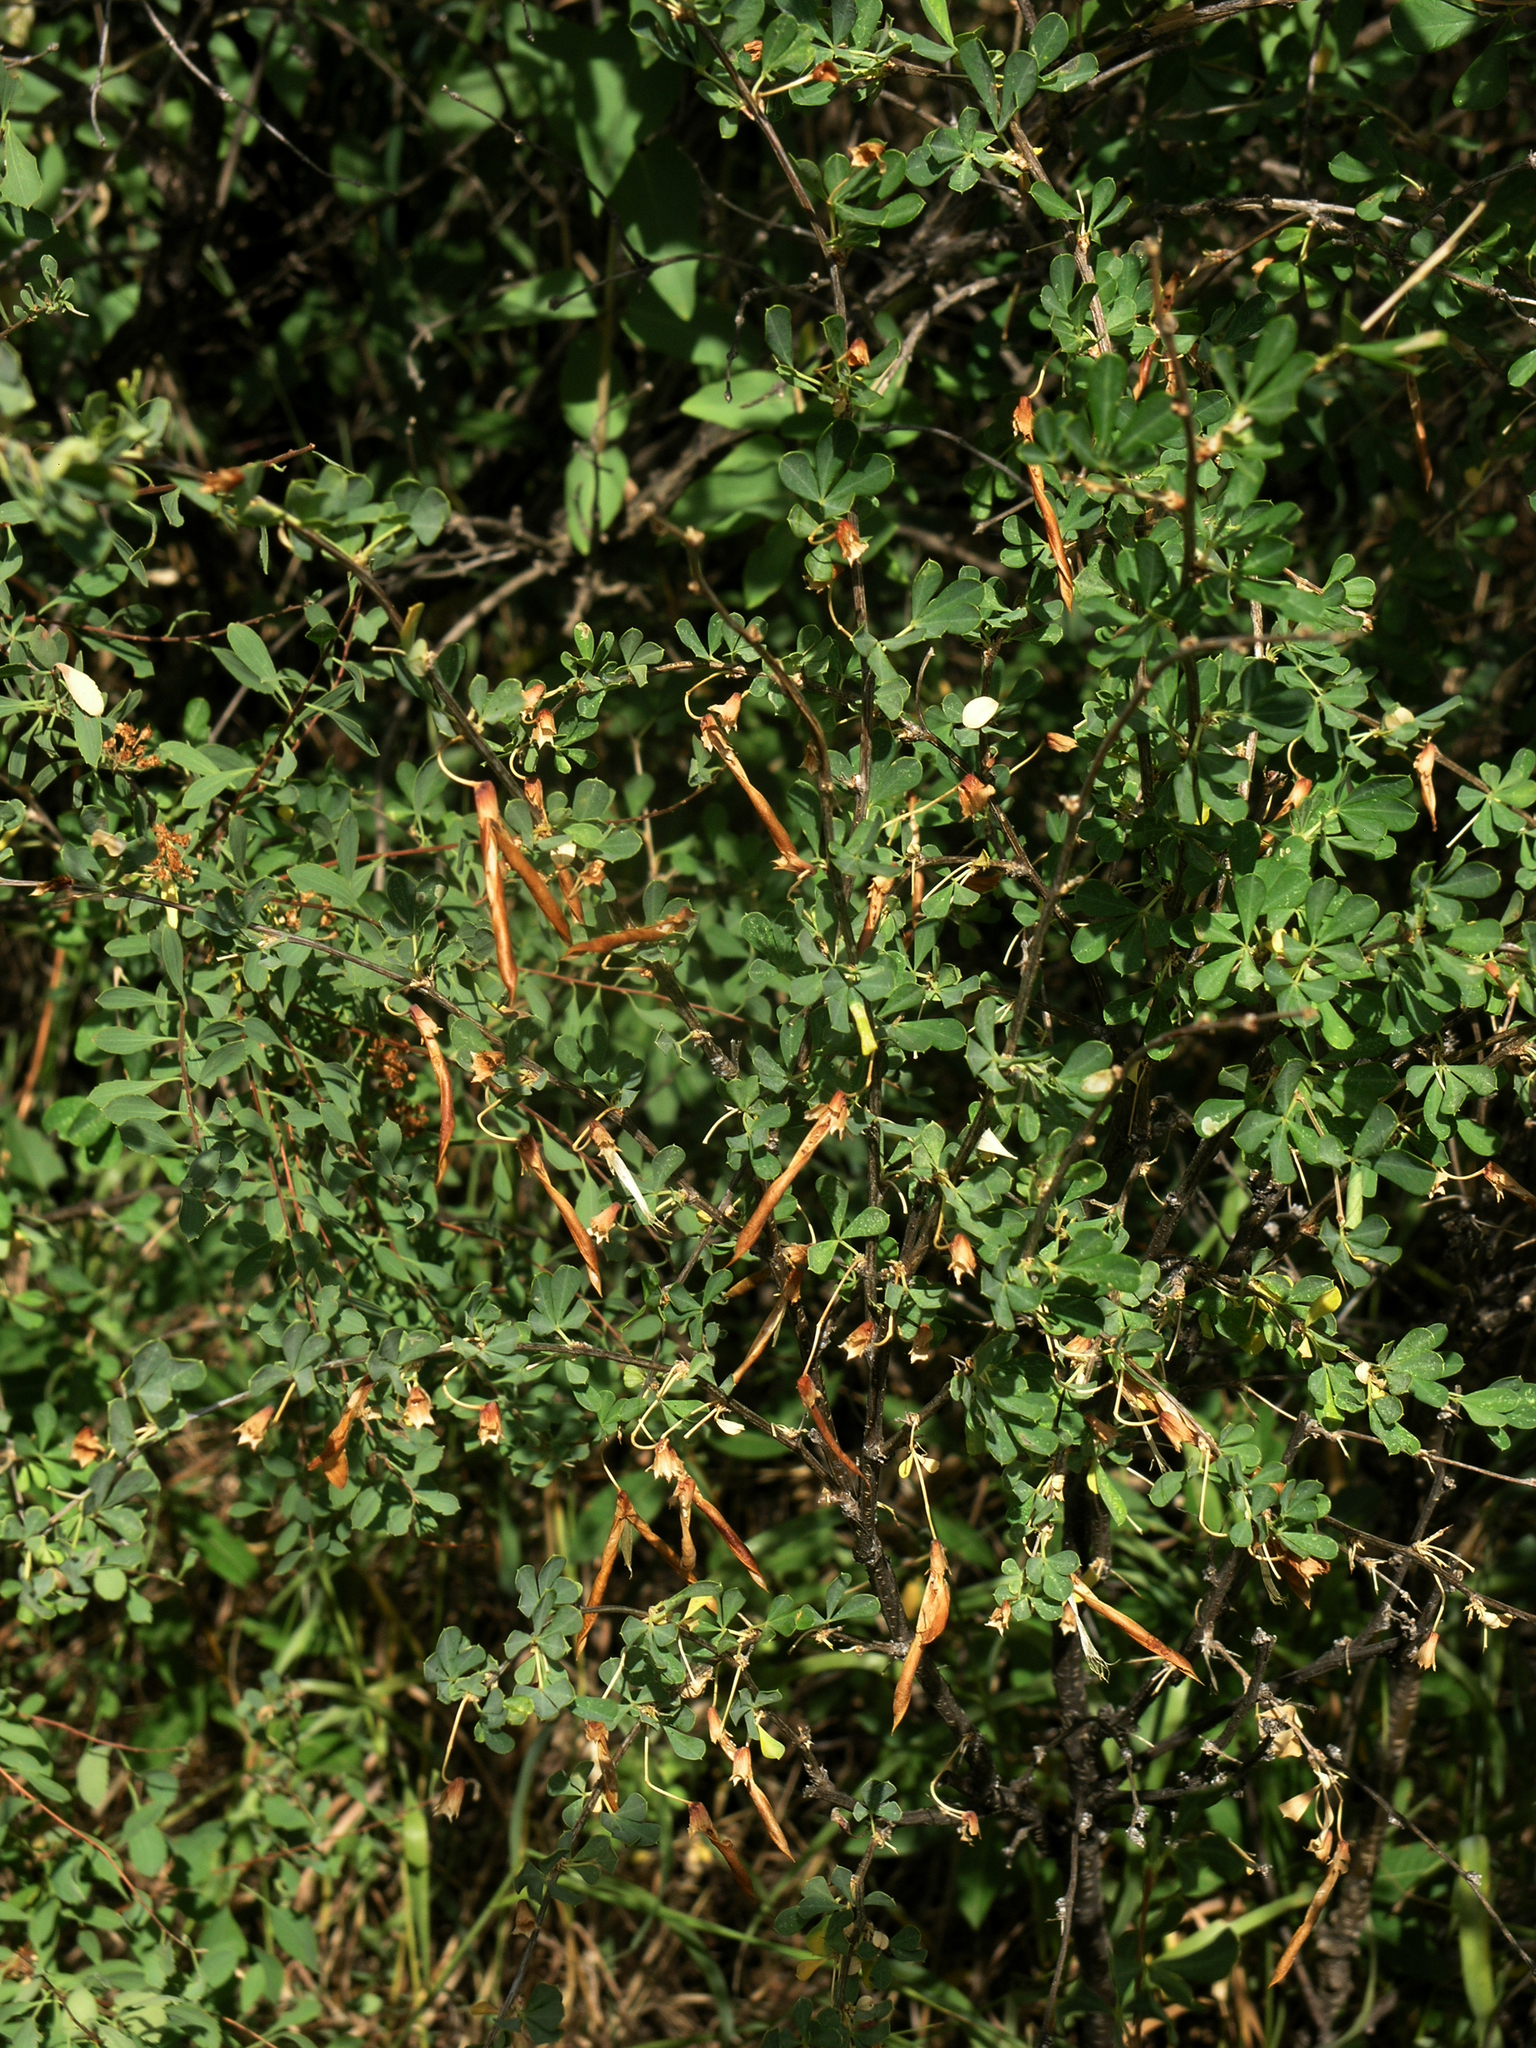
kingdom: Plantae
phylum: Tracheophyta
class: Magnoliopsida
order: Fabales
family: Fabaceae
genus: Caragana
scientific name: Caragana frutex
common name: Russian peashrub
